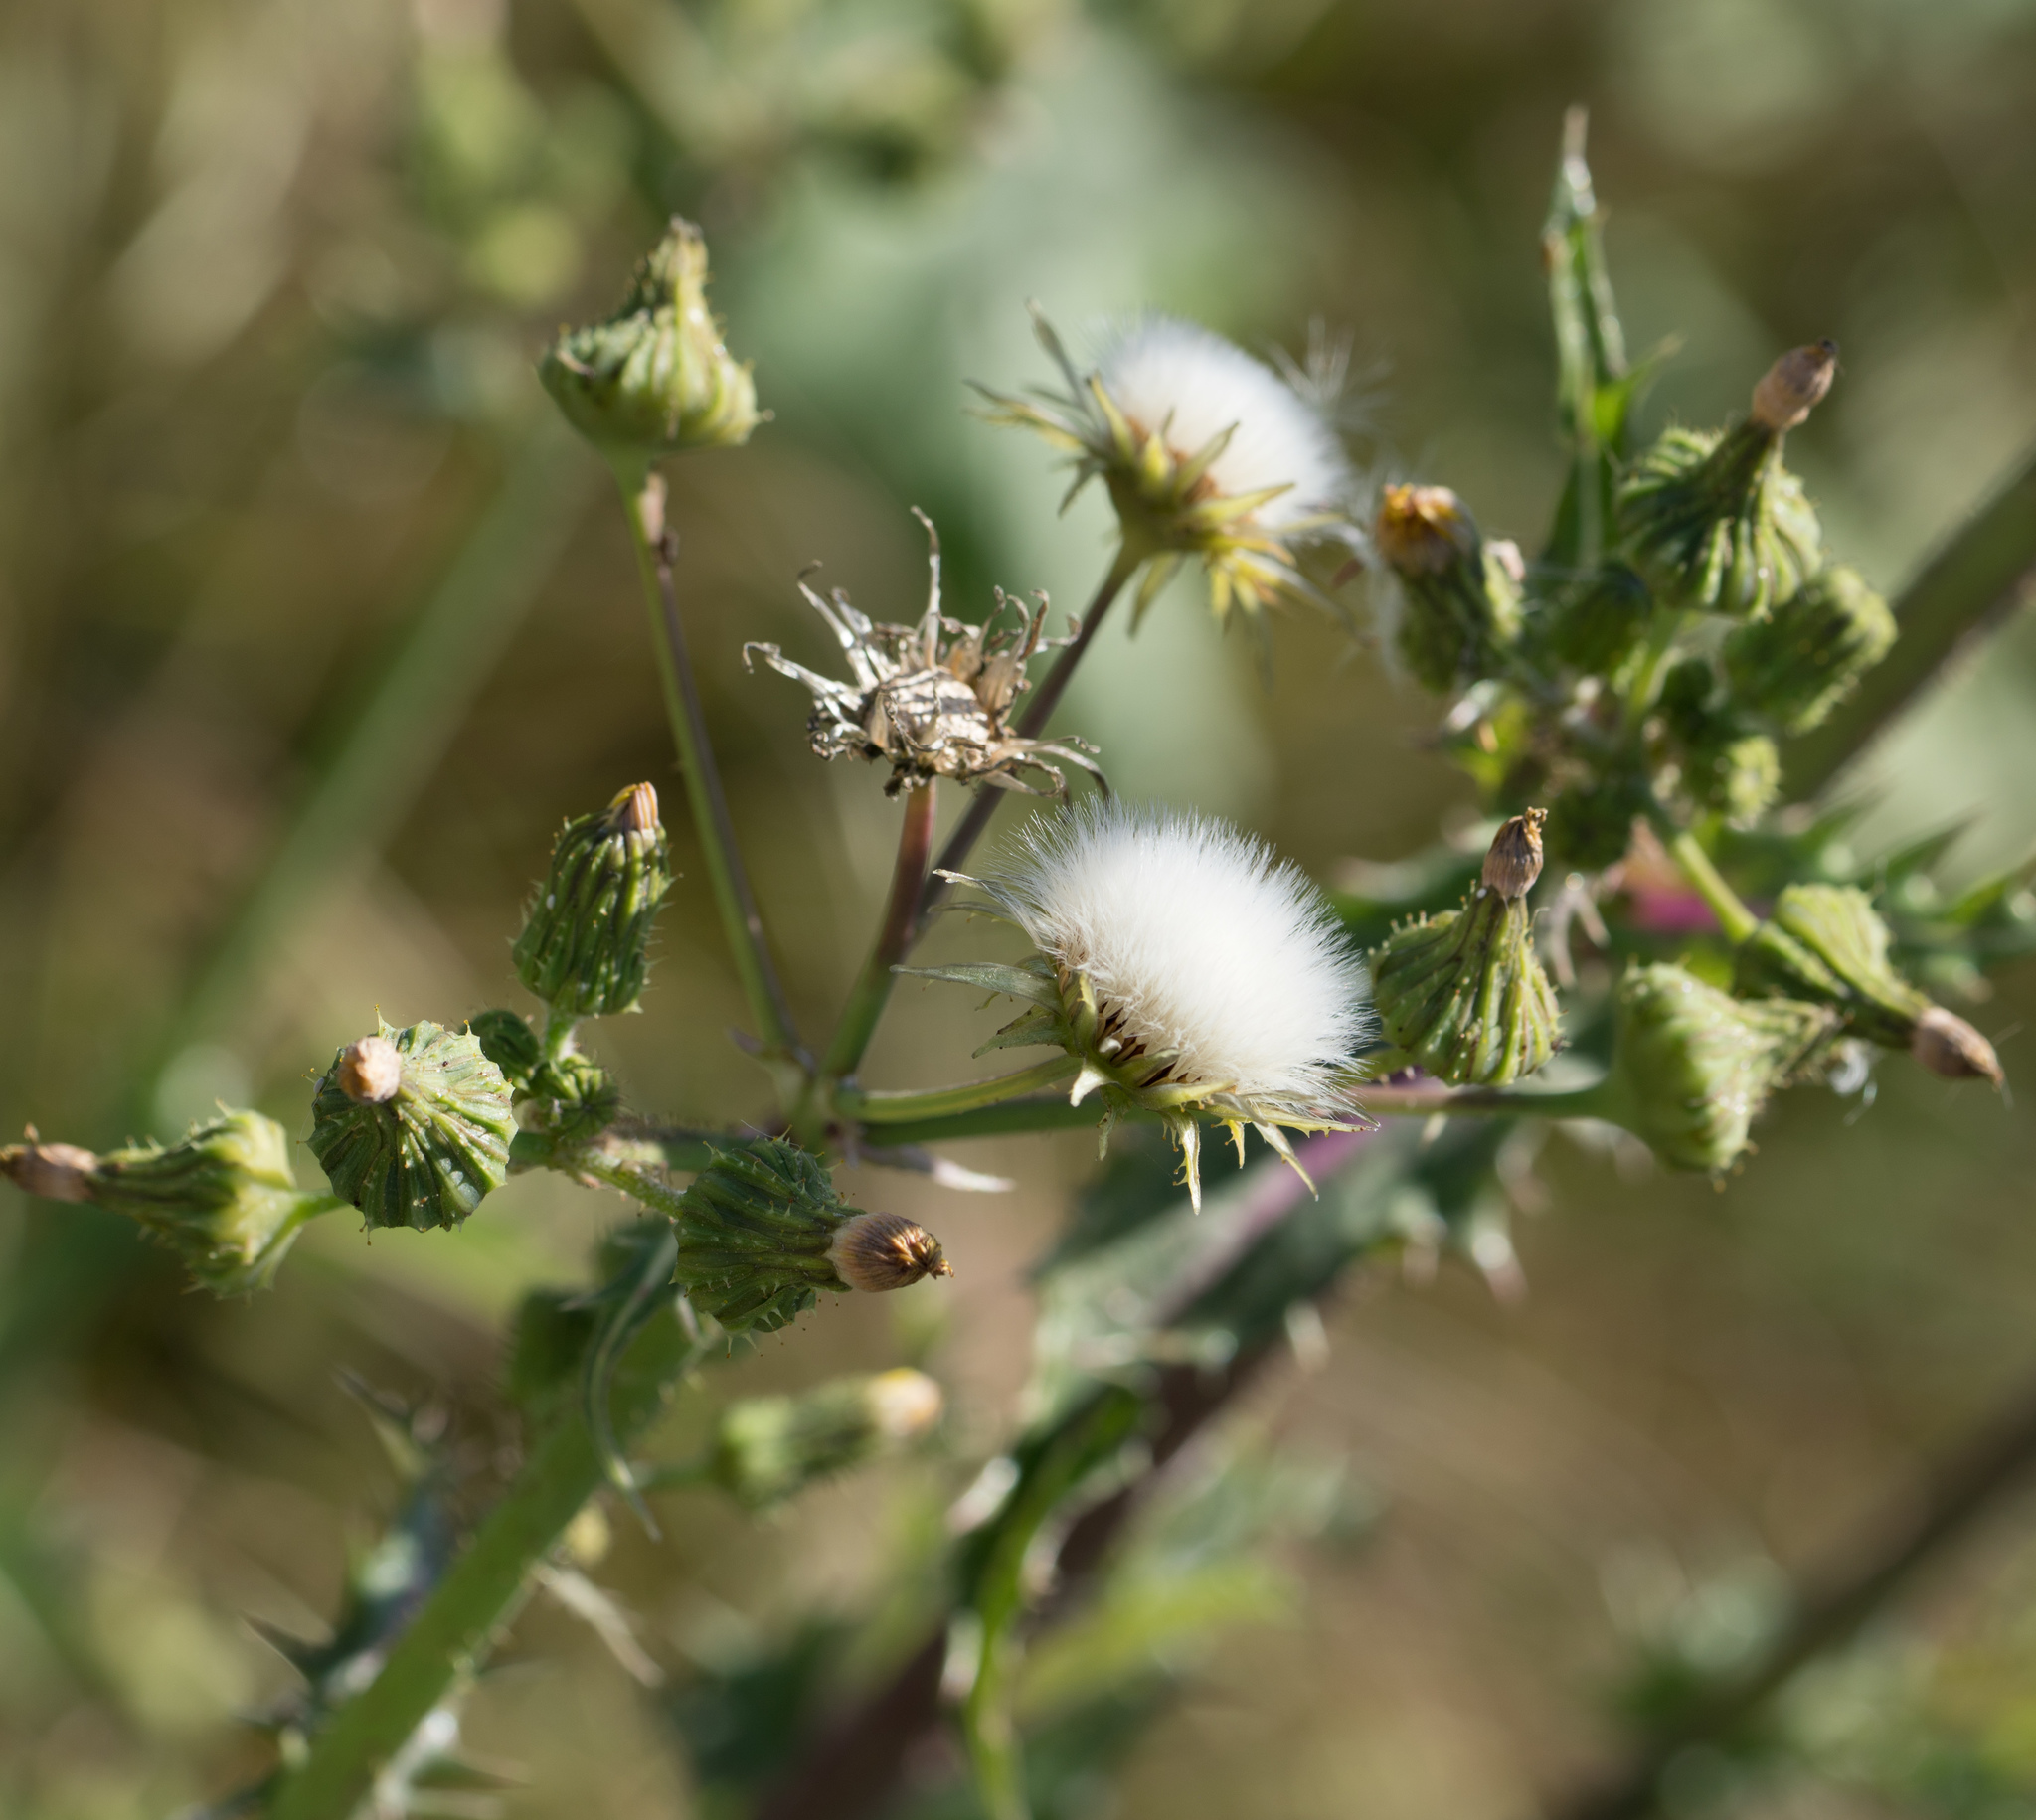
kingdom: Plantae
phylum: Tracheophyta
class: Magnoliopsida
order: Asterales
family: Asteraceae
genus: Sonchus
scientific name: Sonchus asper
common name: Prickly sow-thistle
